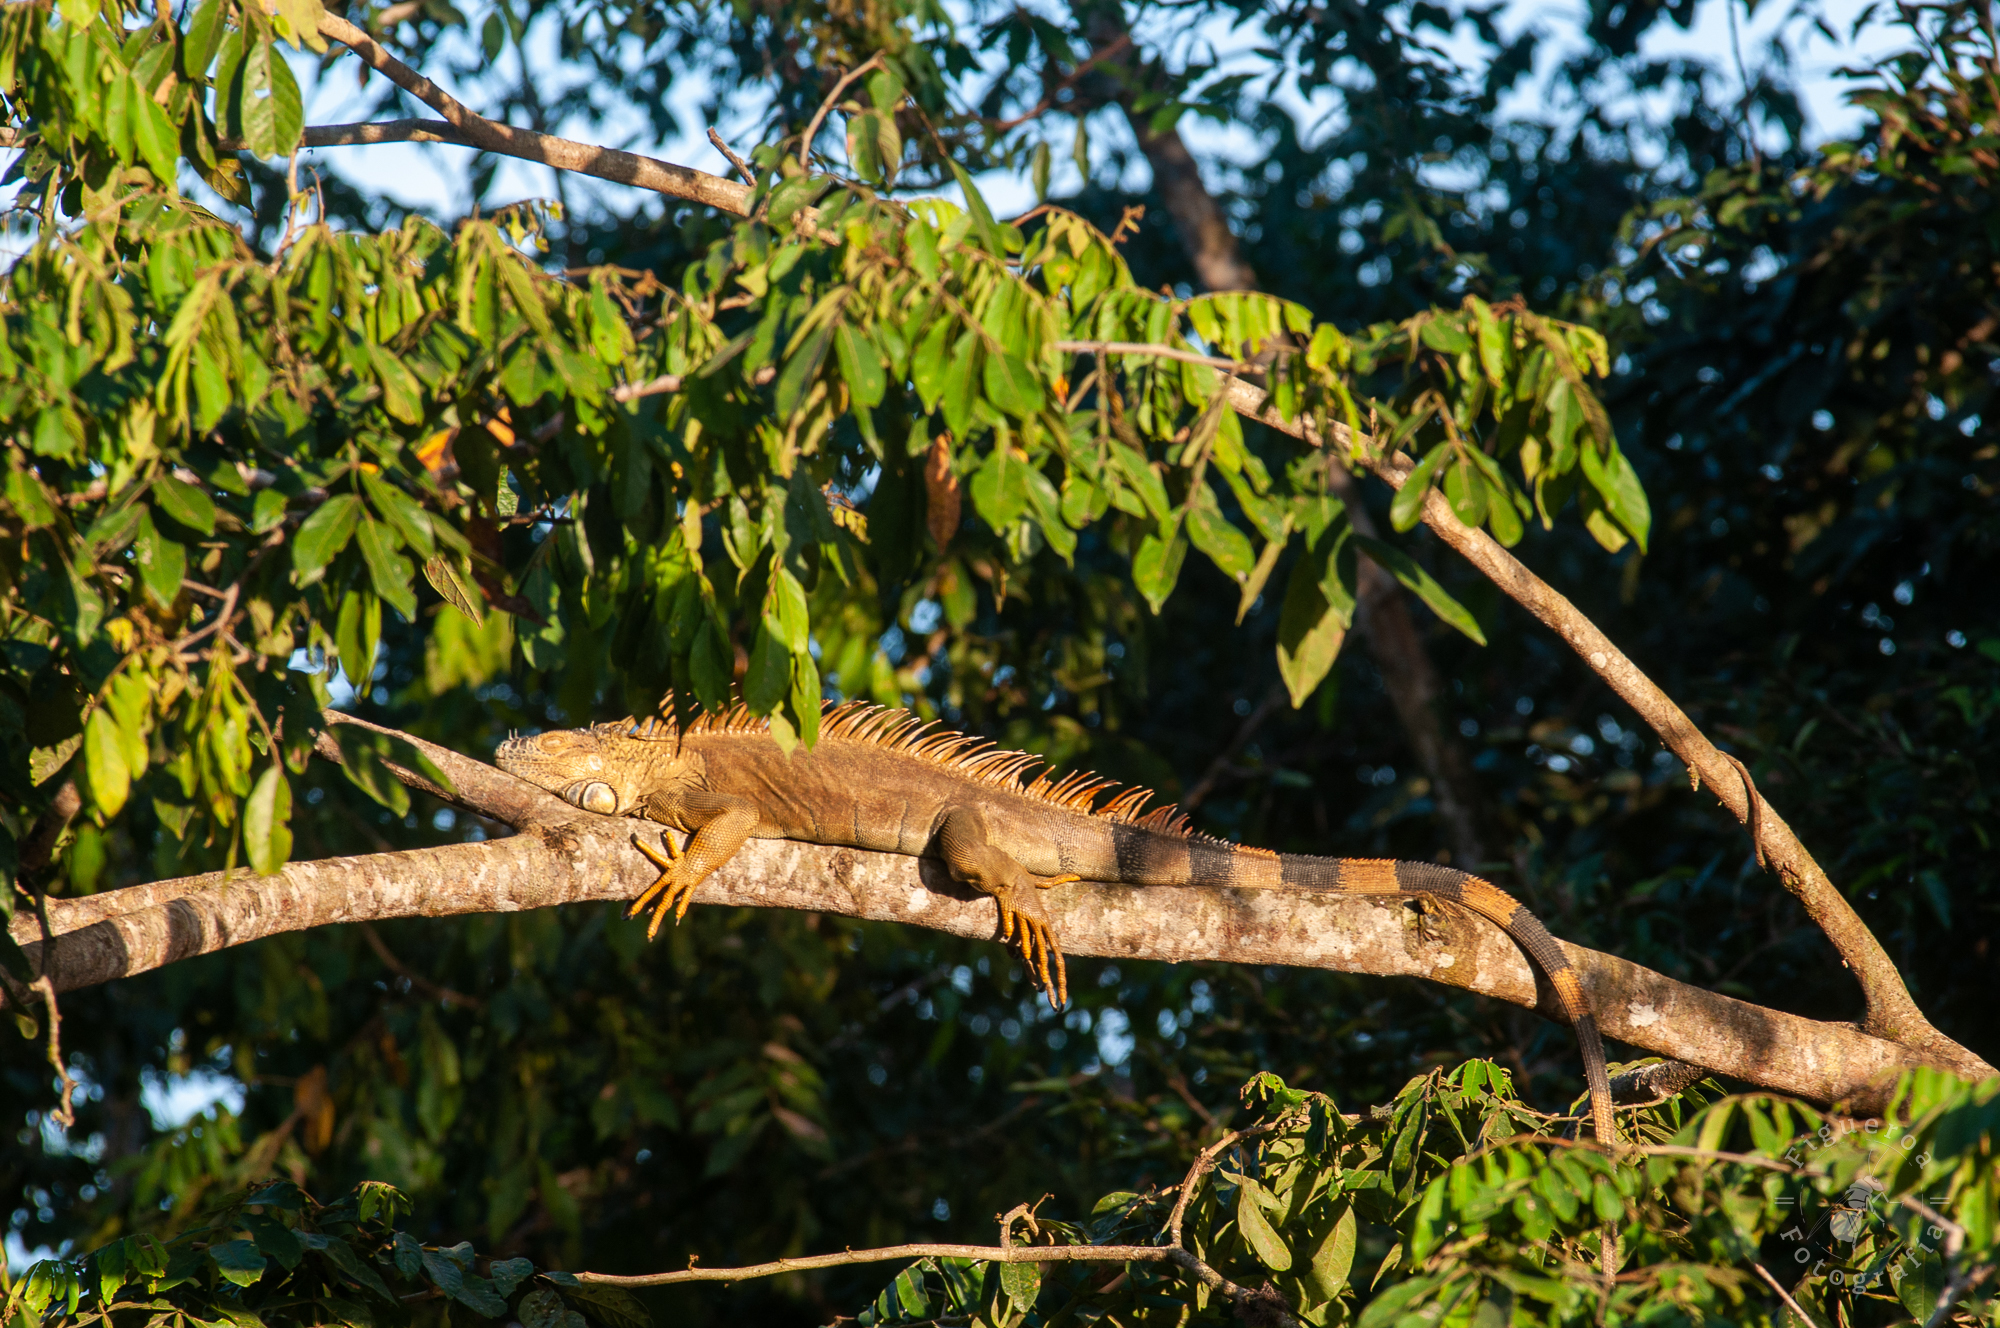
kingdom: Animalia
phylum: Chordata
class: Squamata
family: Iguanidae
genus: Iguana
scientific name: Iguana iguana
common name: Green iguana
